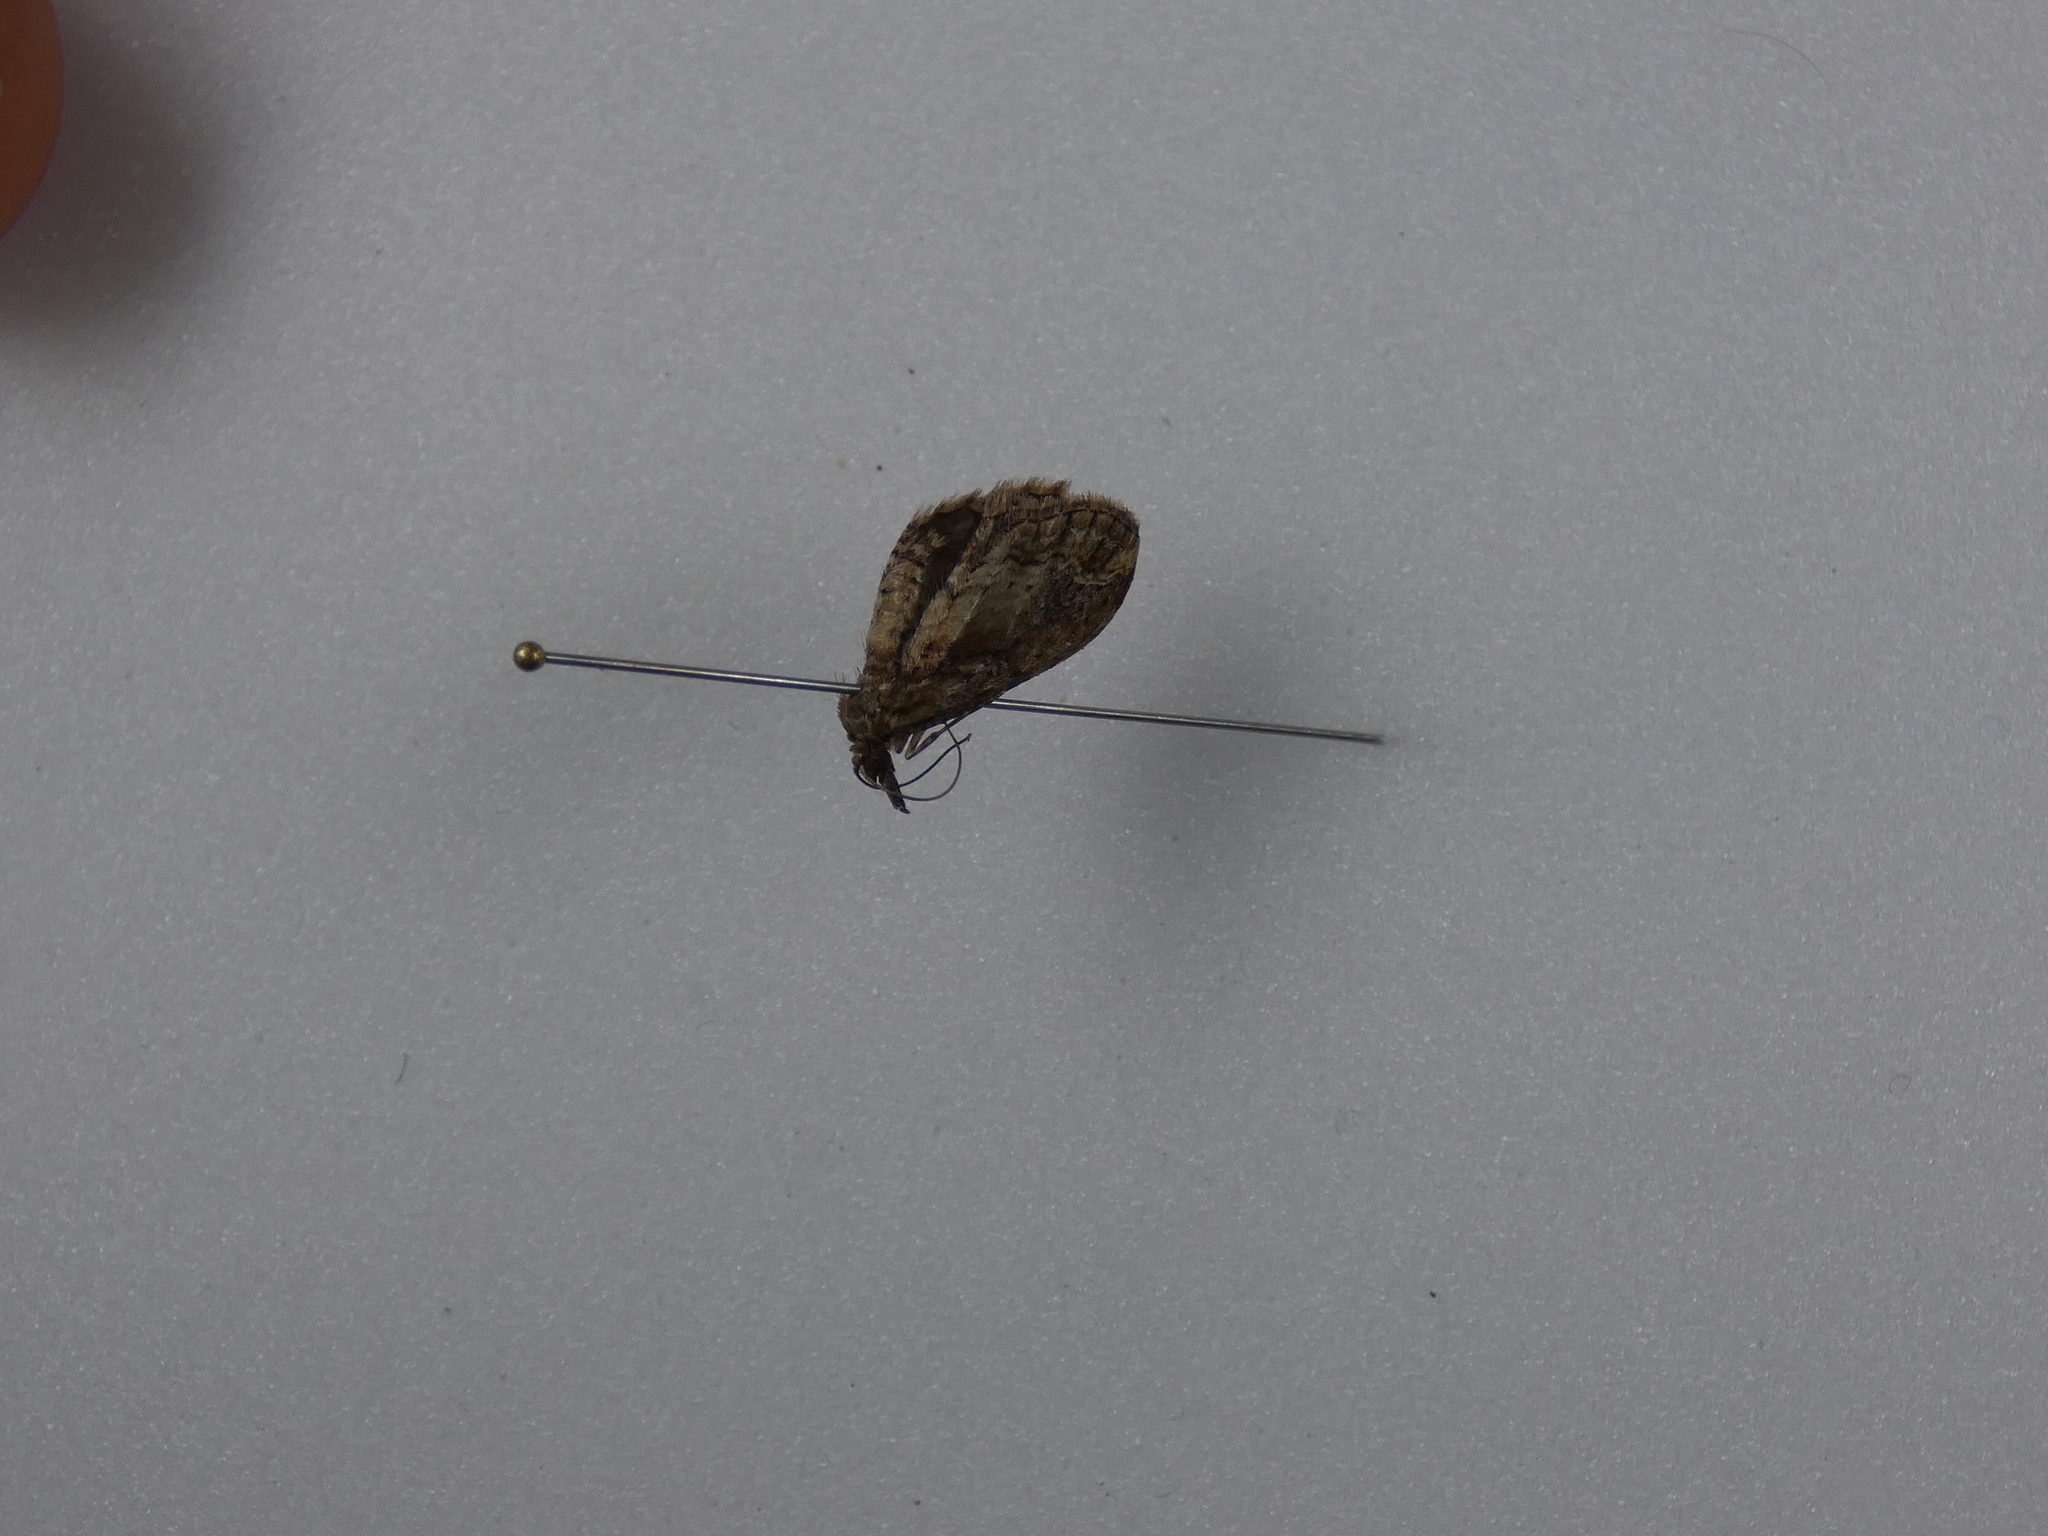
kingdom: Animalia
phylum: Arthropoda
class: Insecta
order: Lepidoptera
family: Geometridae
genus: Chloroclystis
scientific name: Chloroclystis filata
